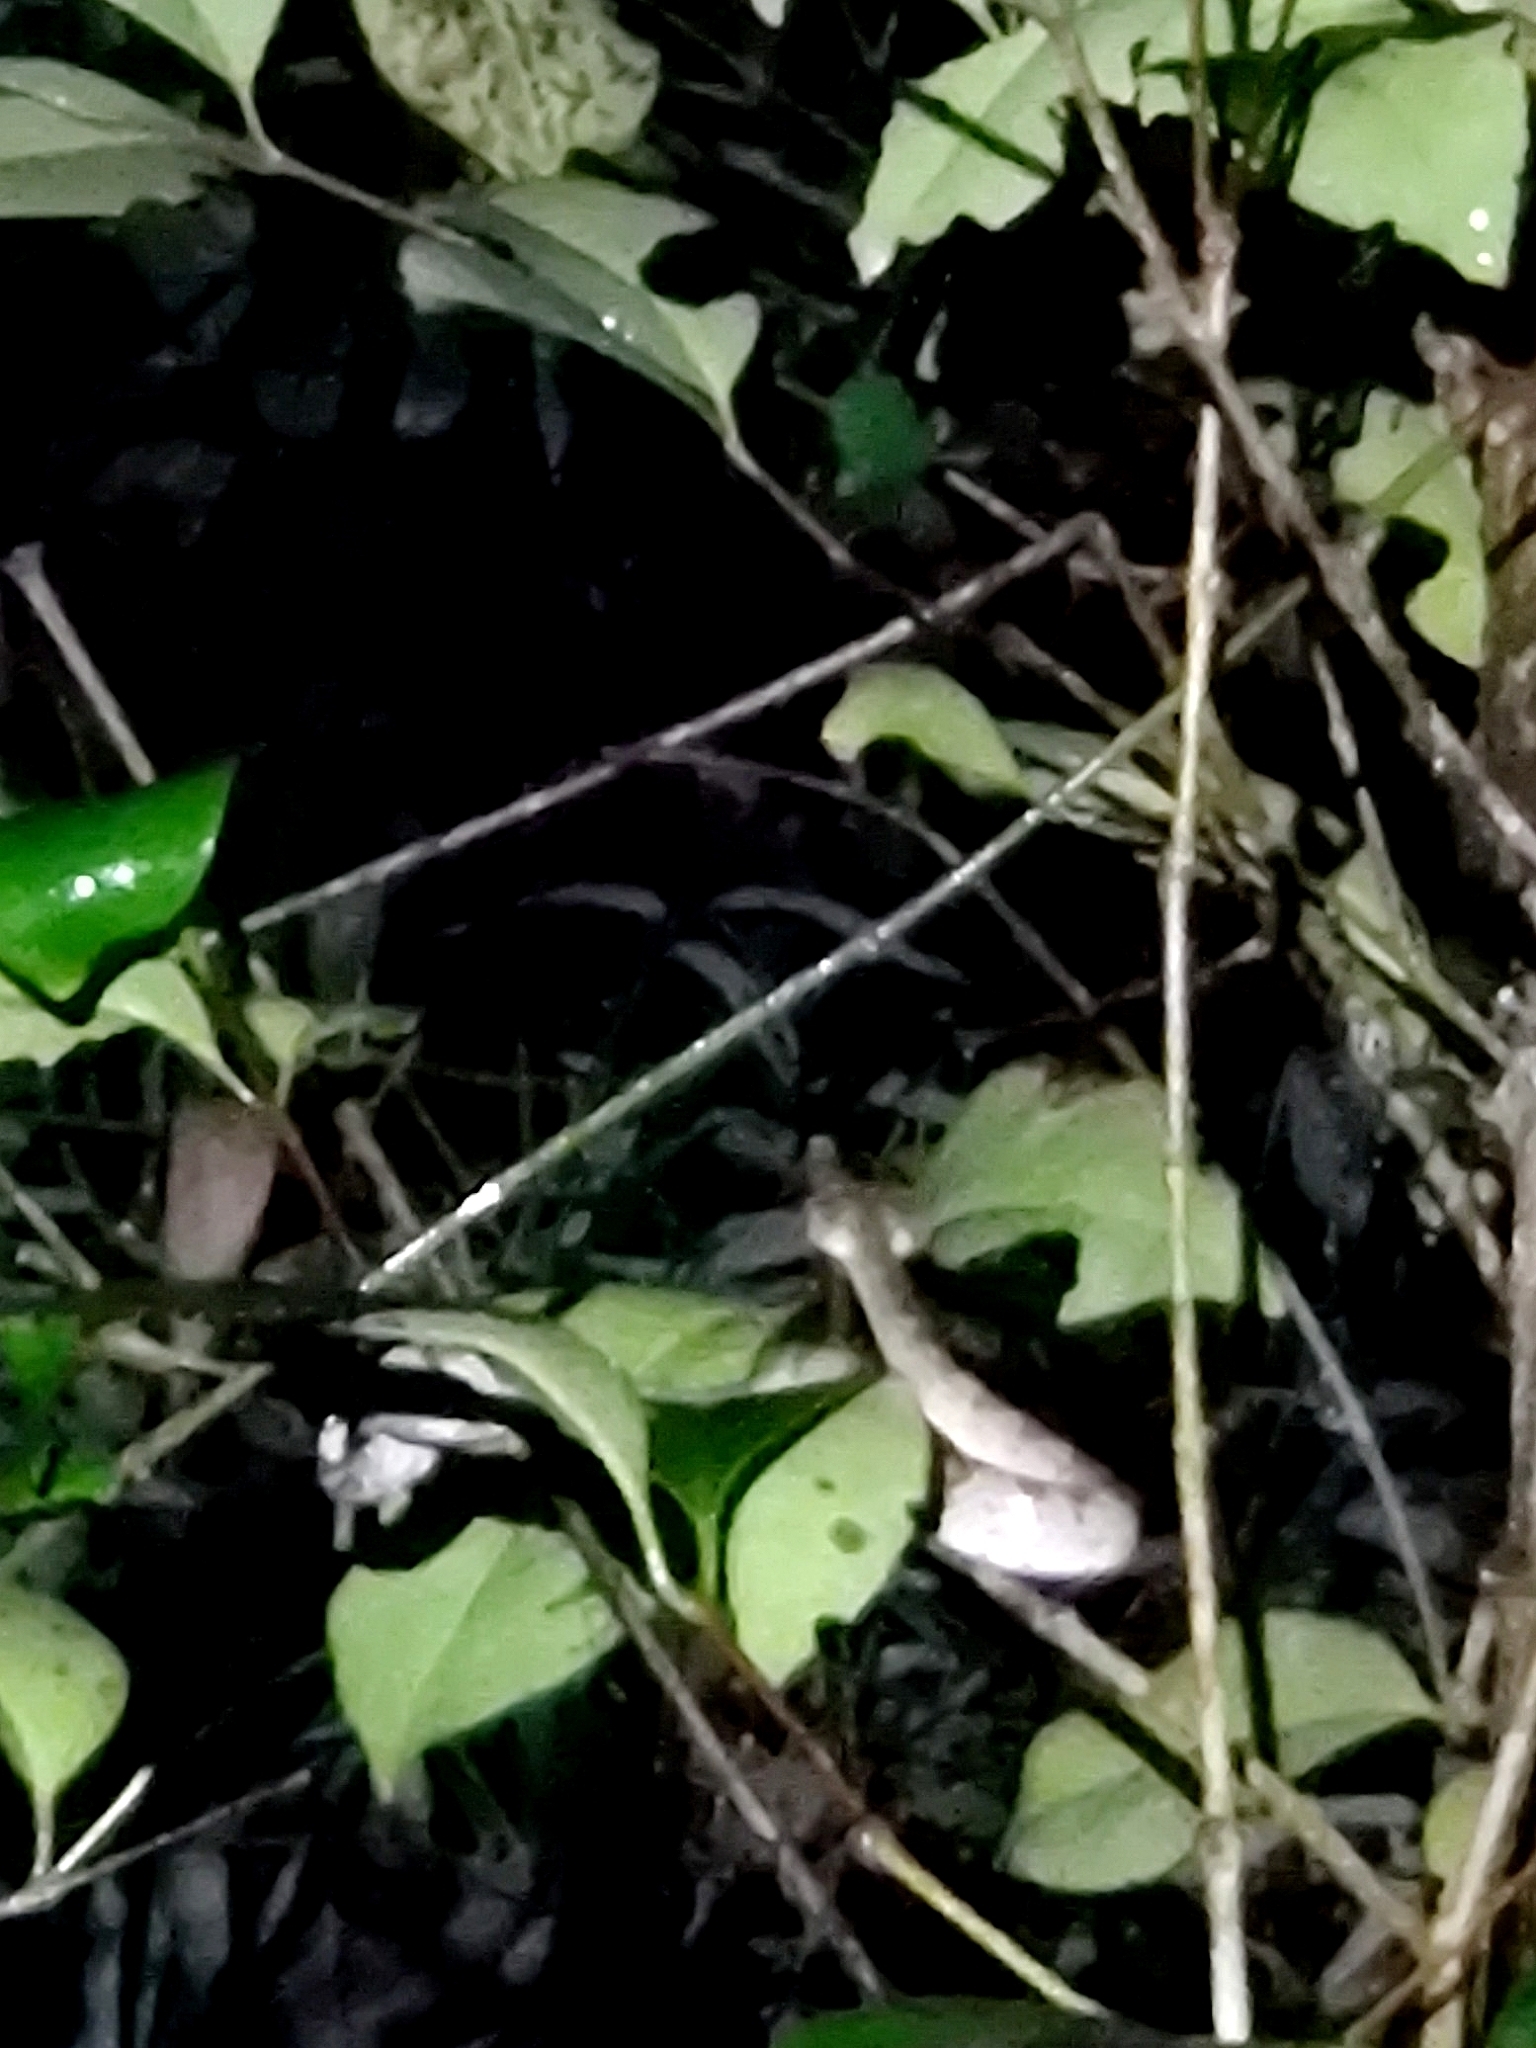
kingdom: Animalia
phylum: Chordata
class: Squamata
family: Viperidae
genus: Craspedocephalus
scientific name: Craspedocephalus malabaricus
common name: Malabarian pit viper
